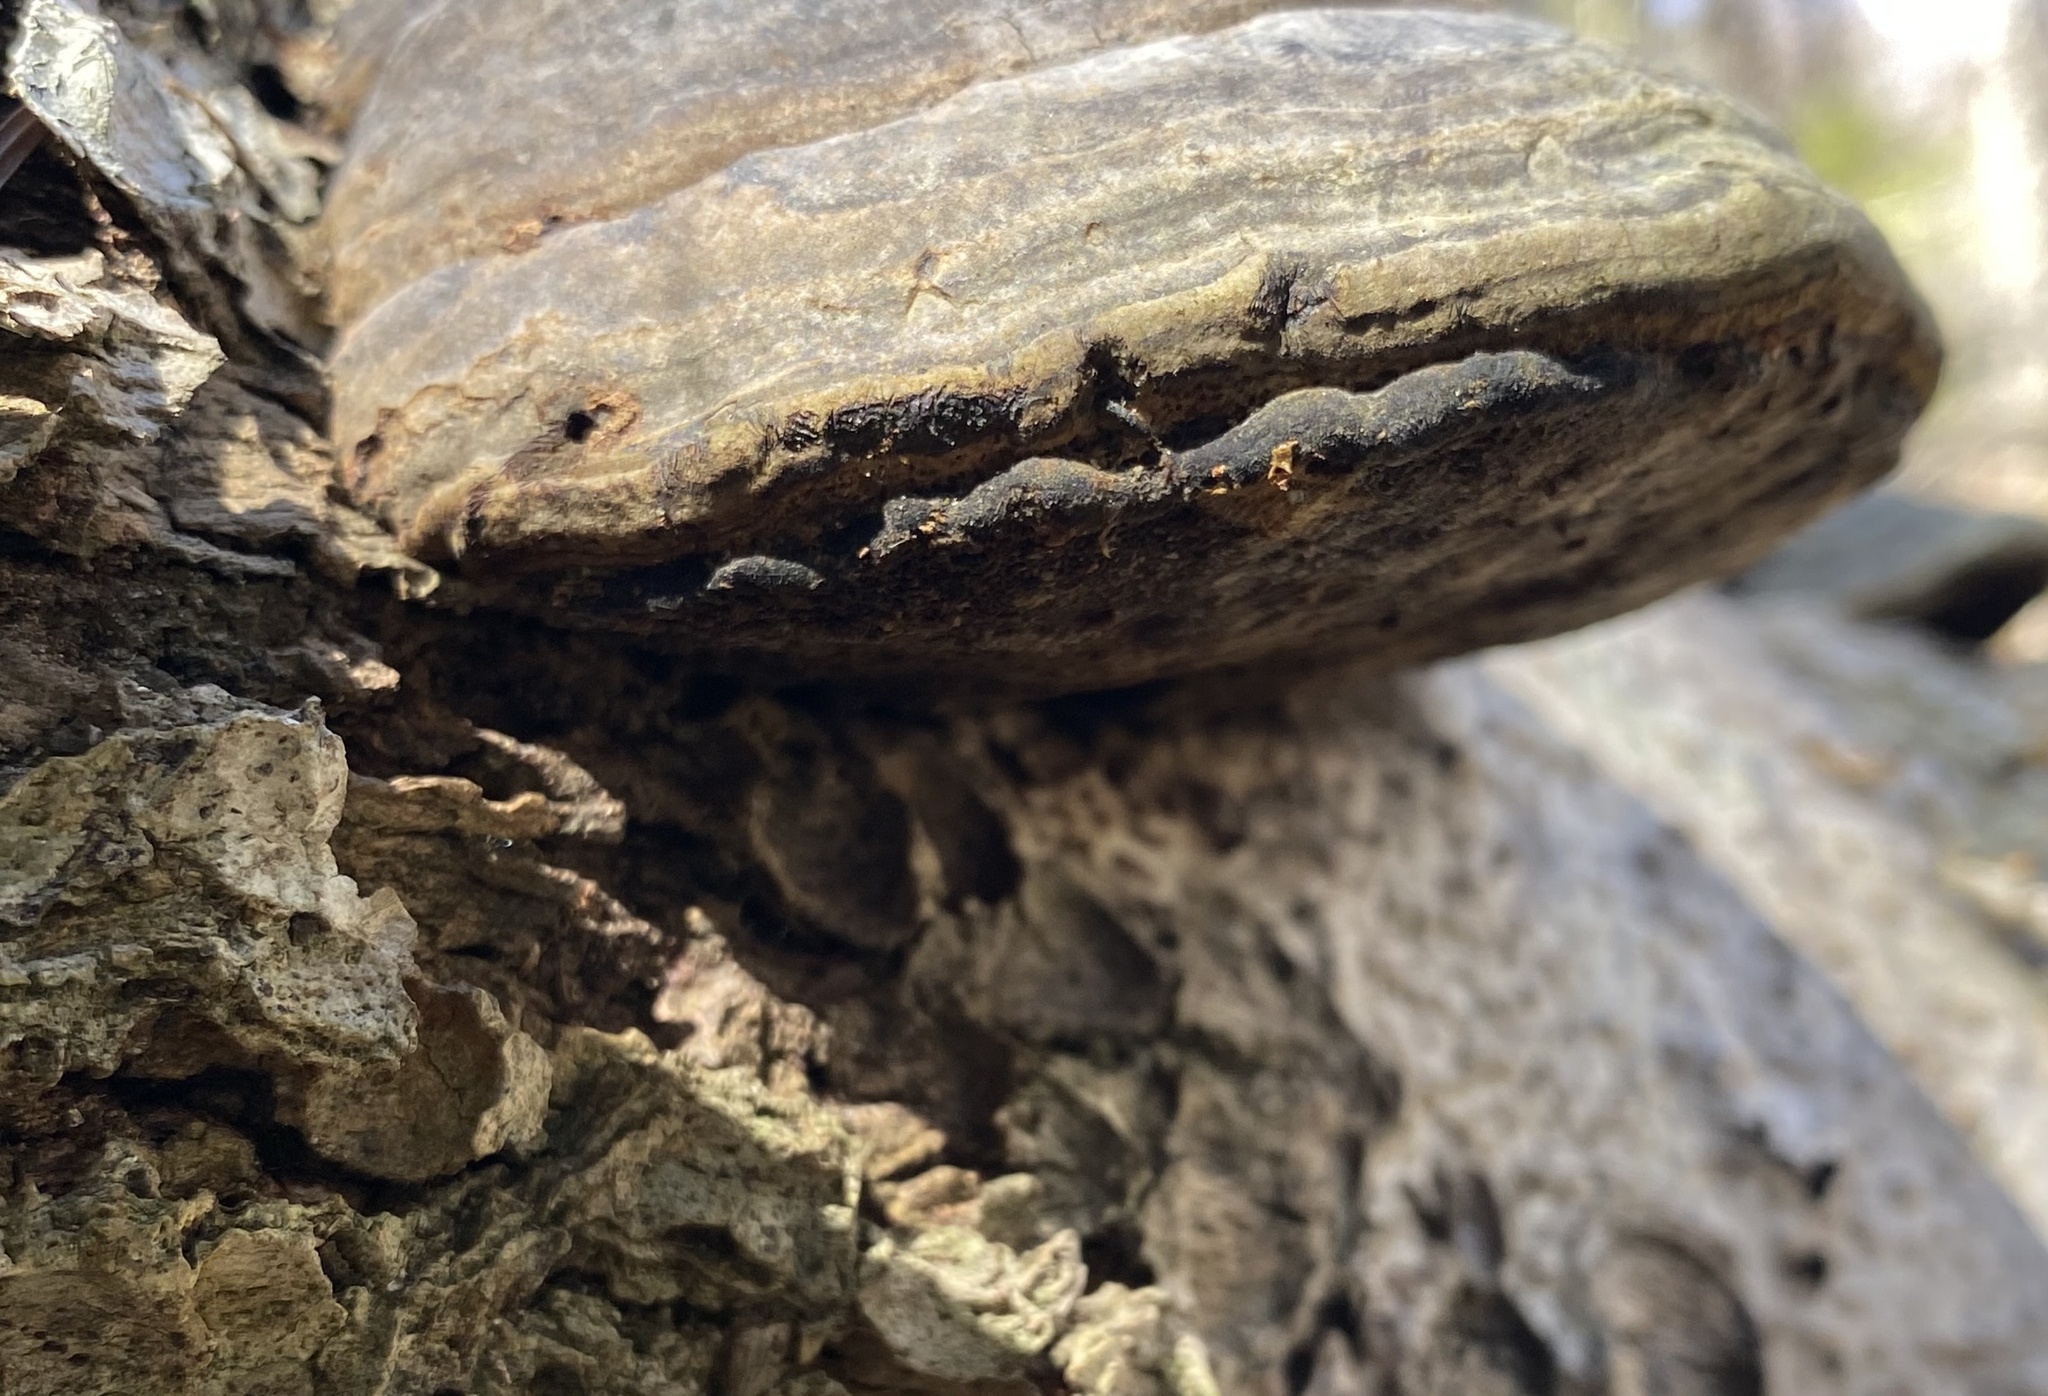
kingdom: Fungi
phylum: Basidiomycota
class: Agaricomycetes
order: Polyporales
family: Polyporaceae
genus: Fomes
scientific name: Fomes fomentarius
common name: Hoof fungus
